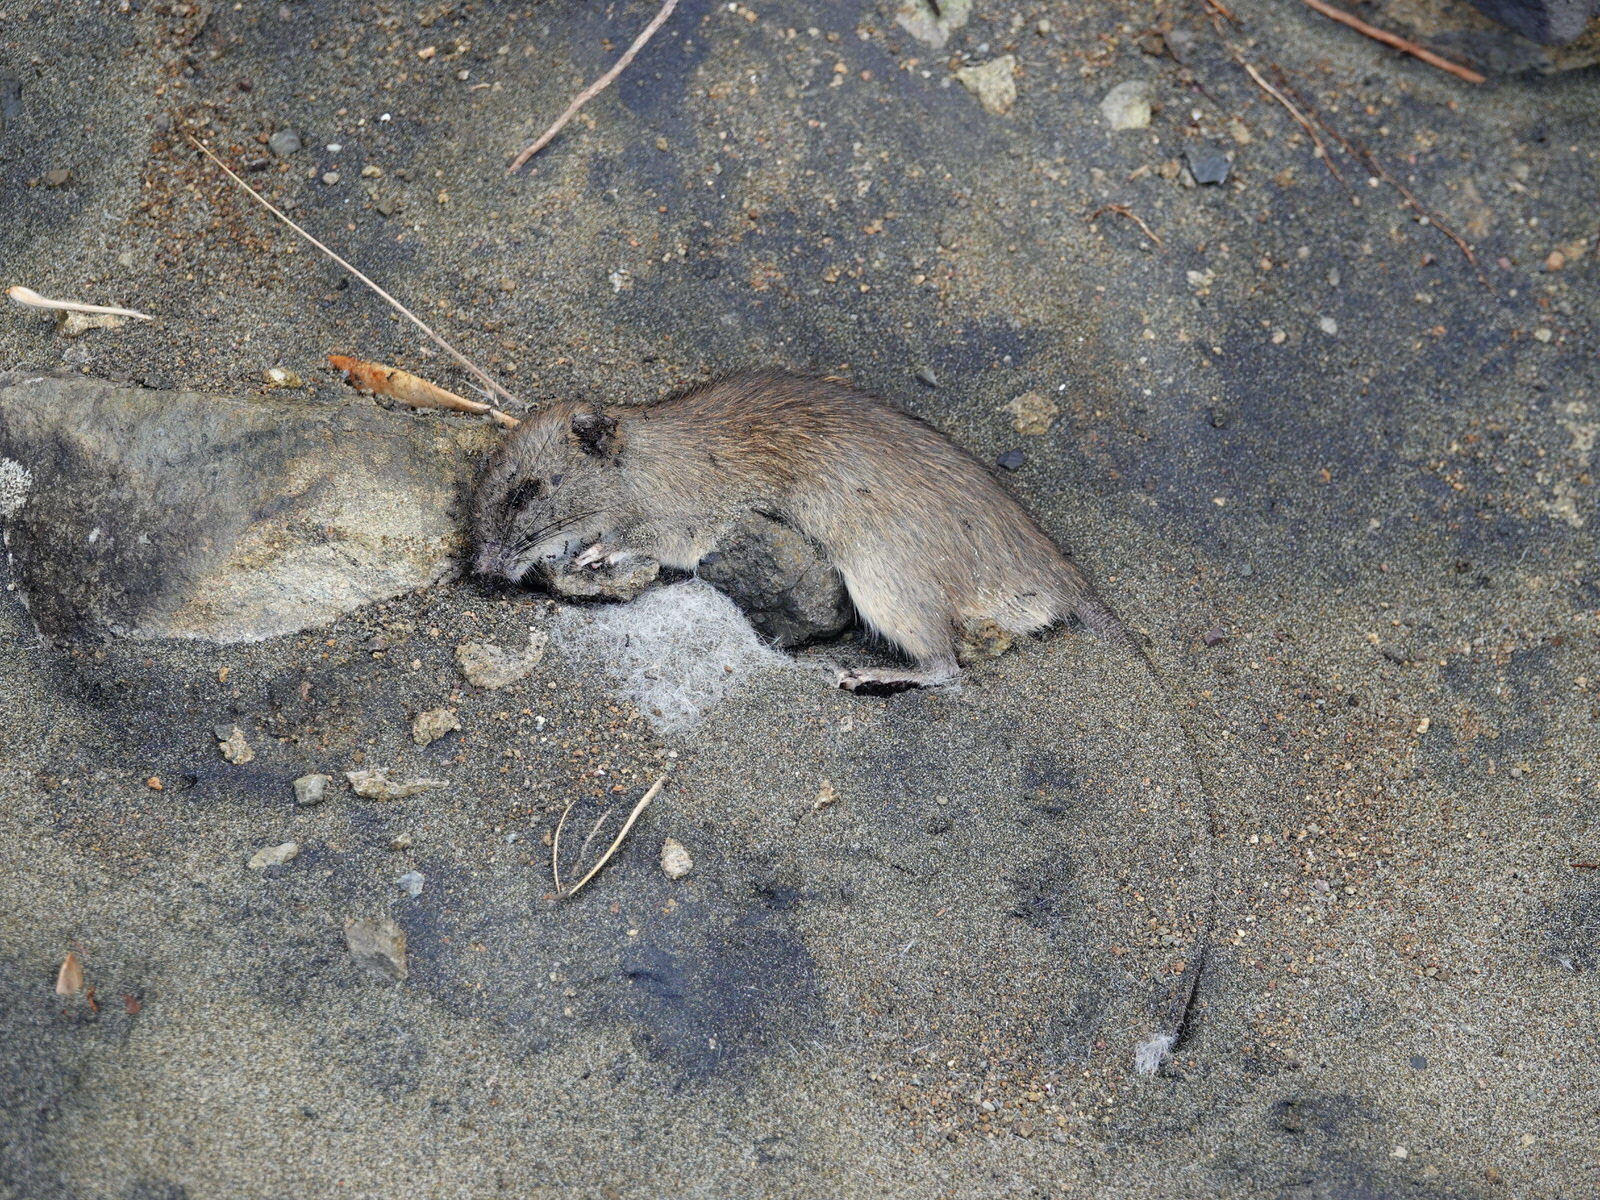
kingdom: Animalia
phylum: Chordata
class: Mammalia
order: Rodentia
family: Muridae
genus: Rattus
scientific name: Rattus rattus
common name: Black rat
